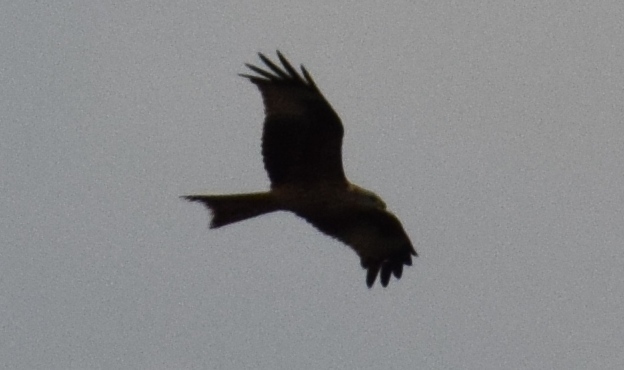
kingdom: Animalia
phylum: Chordata
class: Aves
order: Accipitriformes
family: Accipitridae
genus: Milvus
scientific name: Milvus milvus
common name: Red kite
